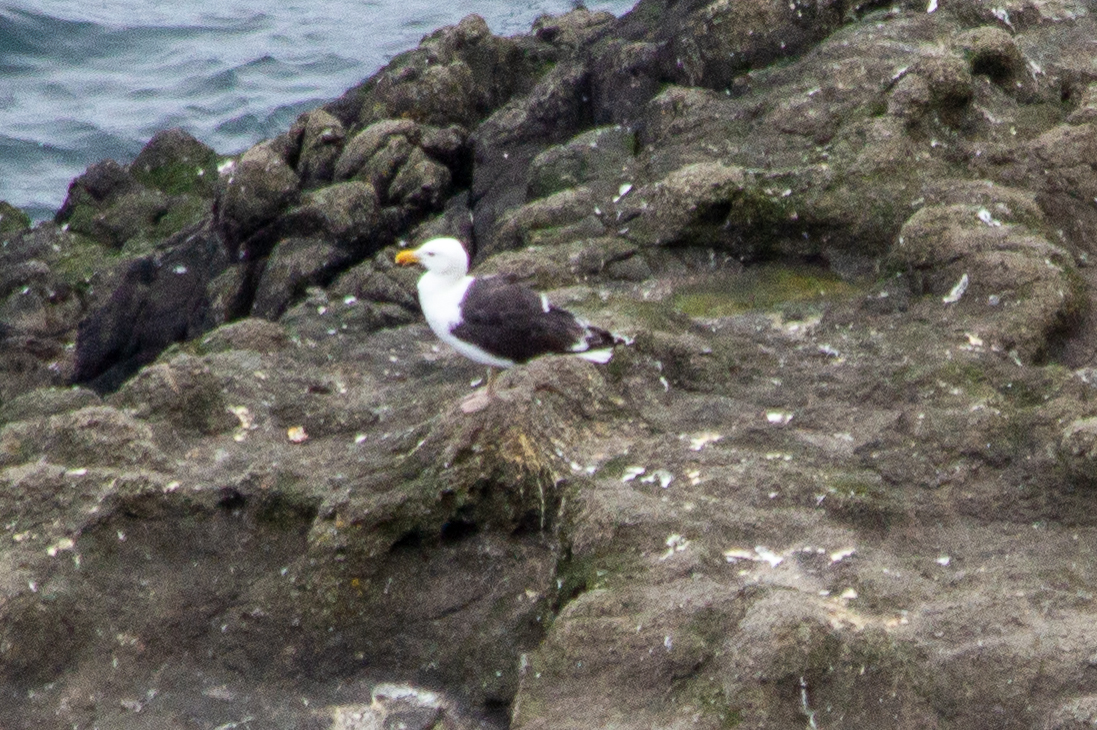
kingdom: Animalia
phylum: Chordata
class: Aves
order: Charadriiformes
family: Laridae
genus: Larus
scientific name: Larus marinus
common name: Great black-backed gull
